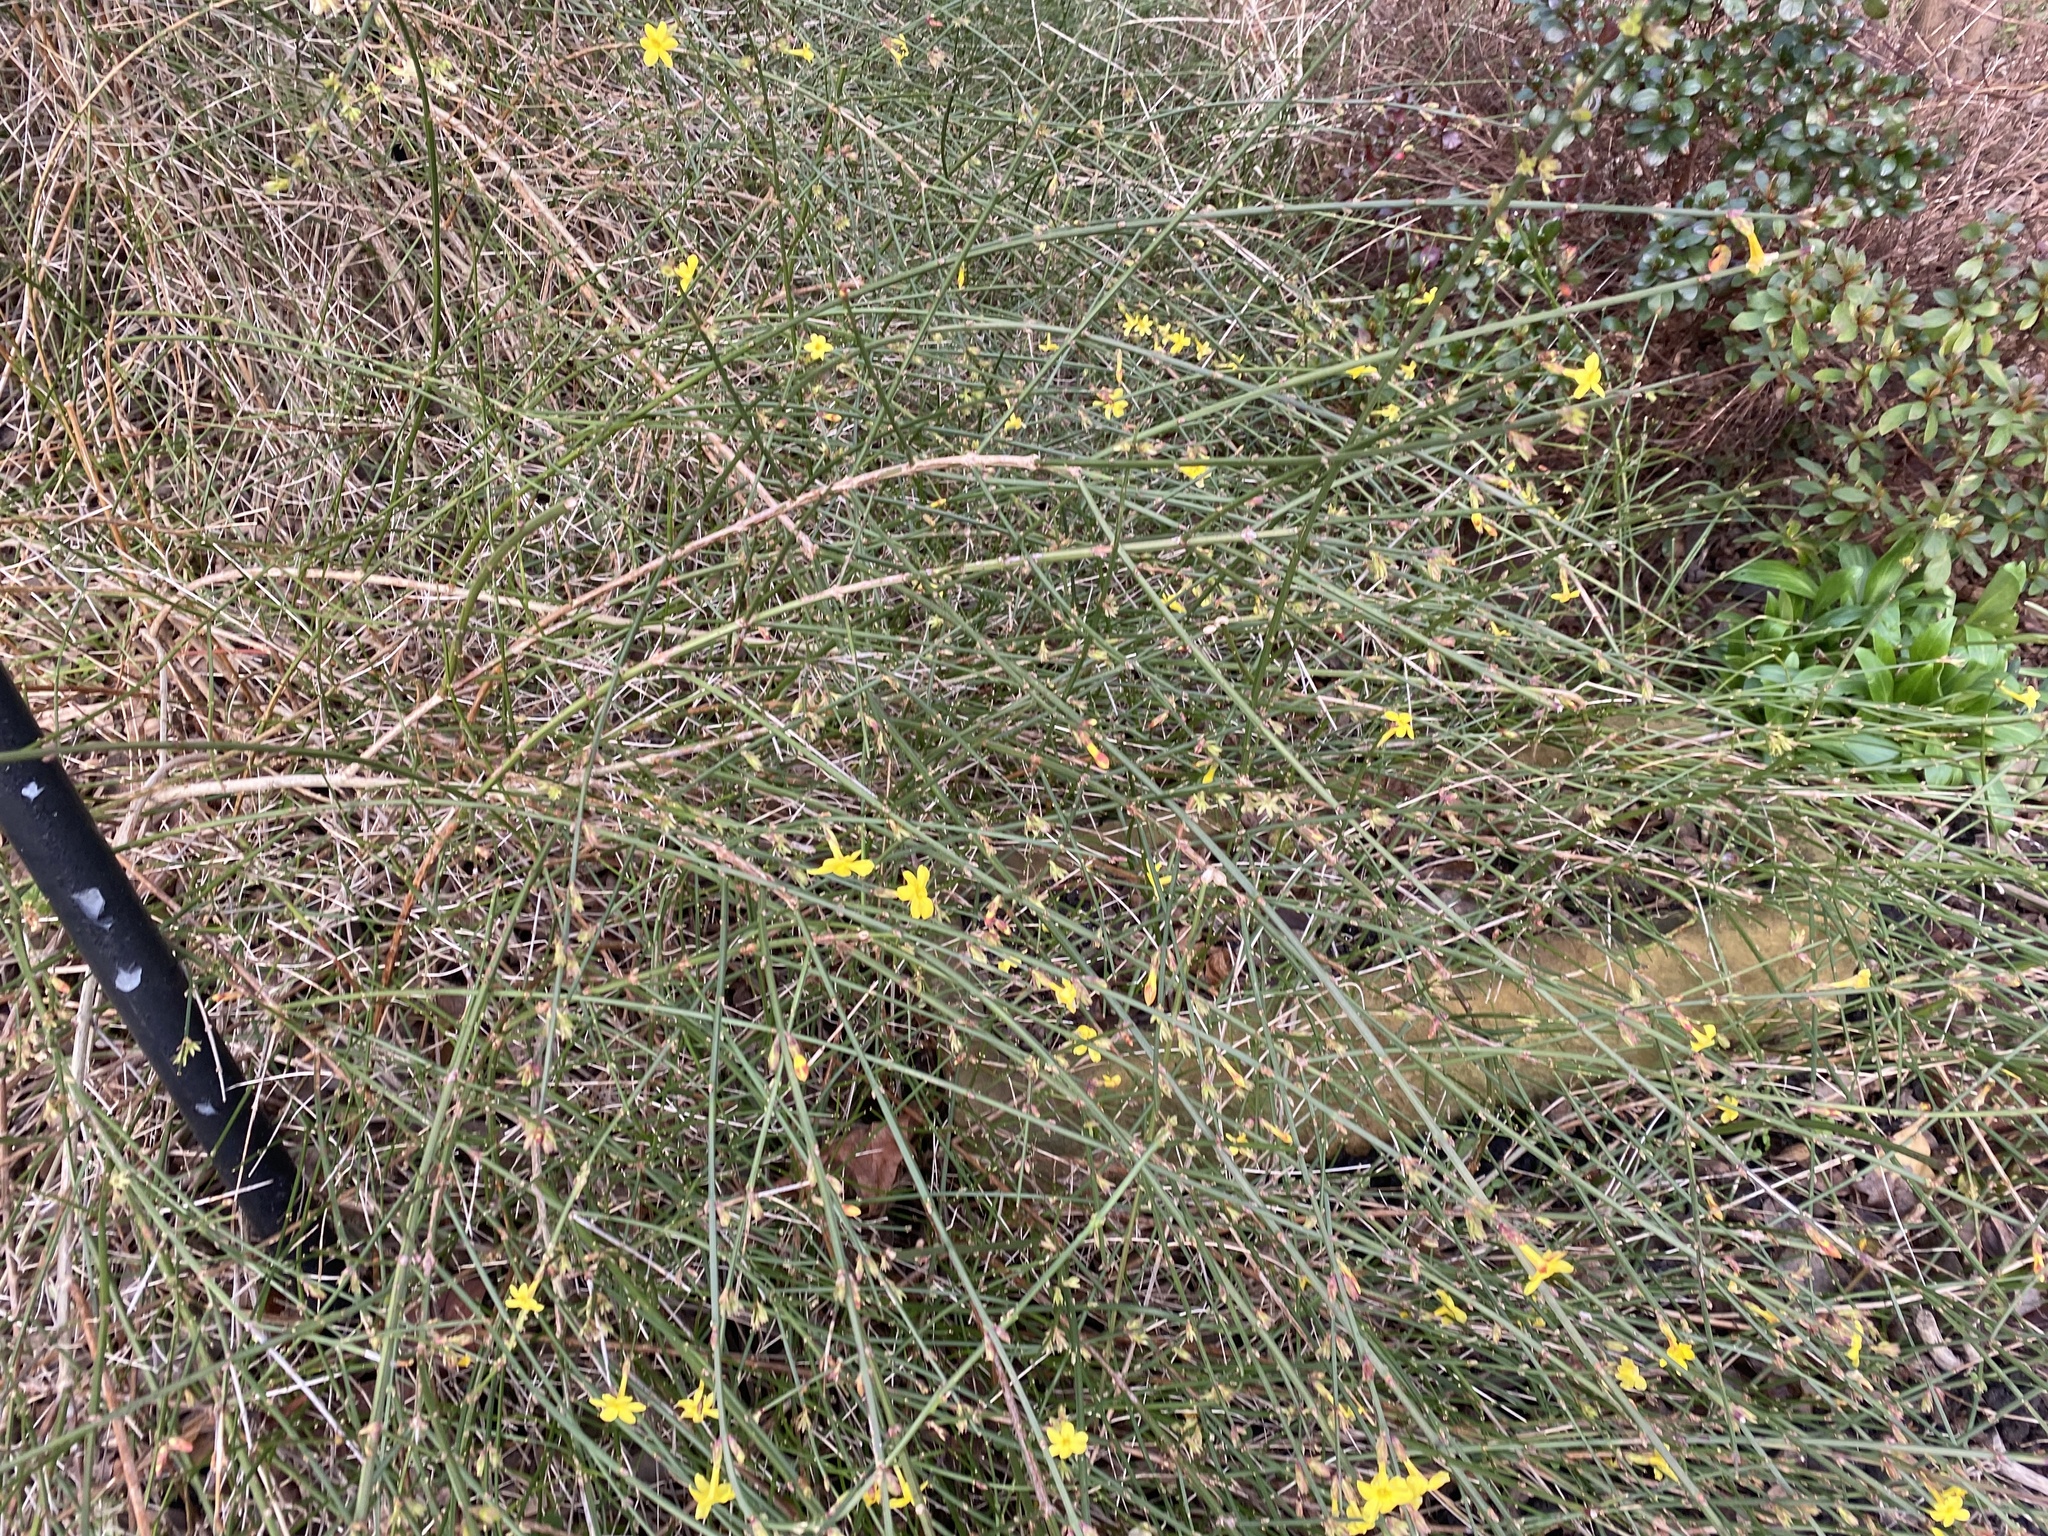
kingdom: Plantae
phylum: Tracheophyta
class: Magnoliopsida
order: Lamiales
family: Oleaceae
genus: Jasminum
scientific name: Jasminum nudiflorum
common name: Winter jasmine
